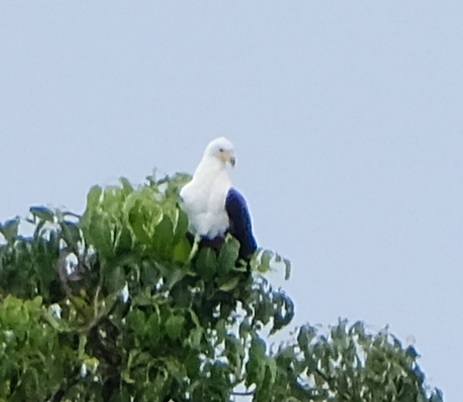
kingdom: Animalia
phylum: Chordata
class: Aves
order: Accipitriformes
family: Accipitridae
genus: Haliaeetus
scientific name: Haliaeetus vocifer
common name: African fish eagle
